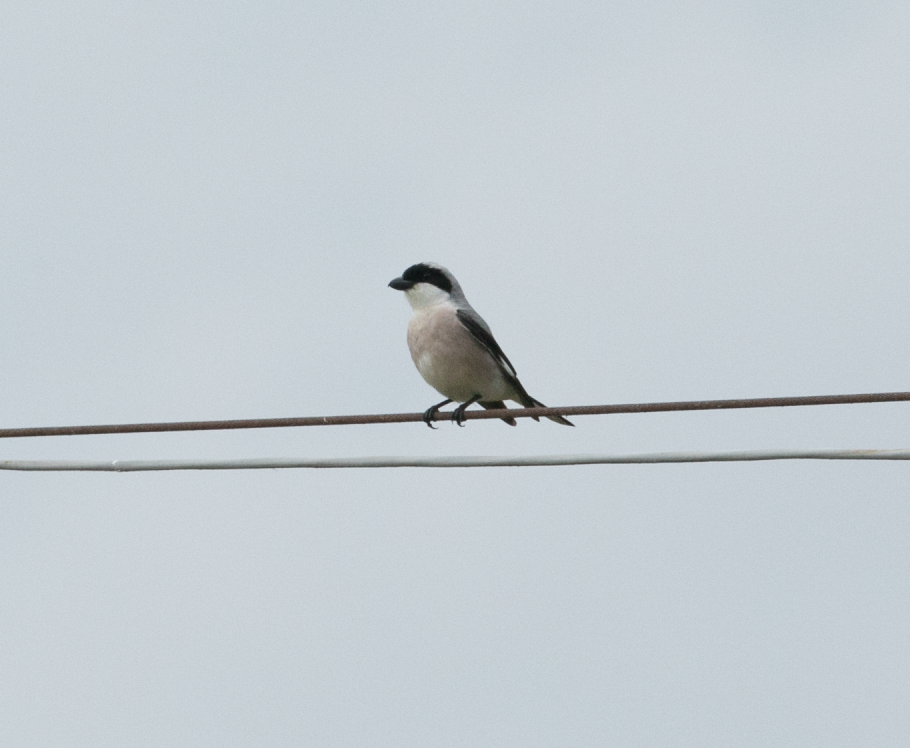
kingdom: Animalia
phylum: Chordata
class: Aves
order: Passeriformes
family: Laniidae
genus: Lanius
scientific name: Lanius minor
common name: Lesser grey shrike
